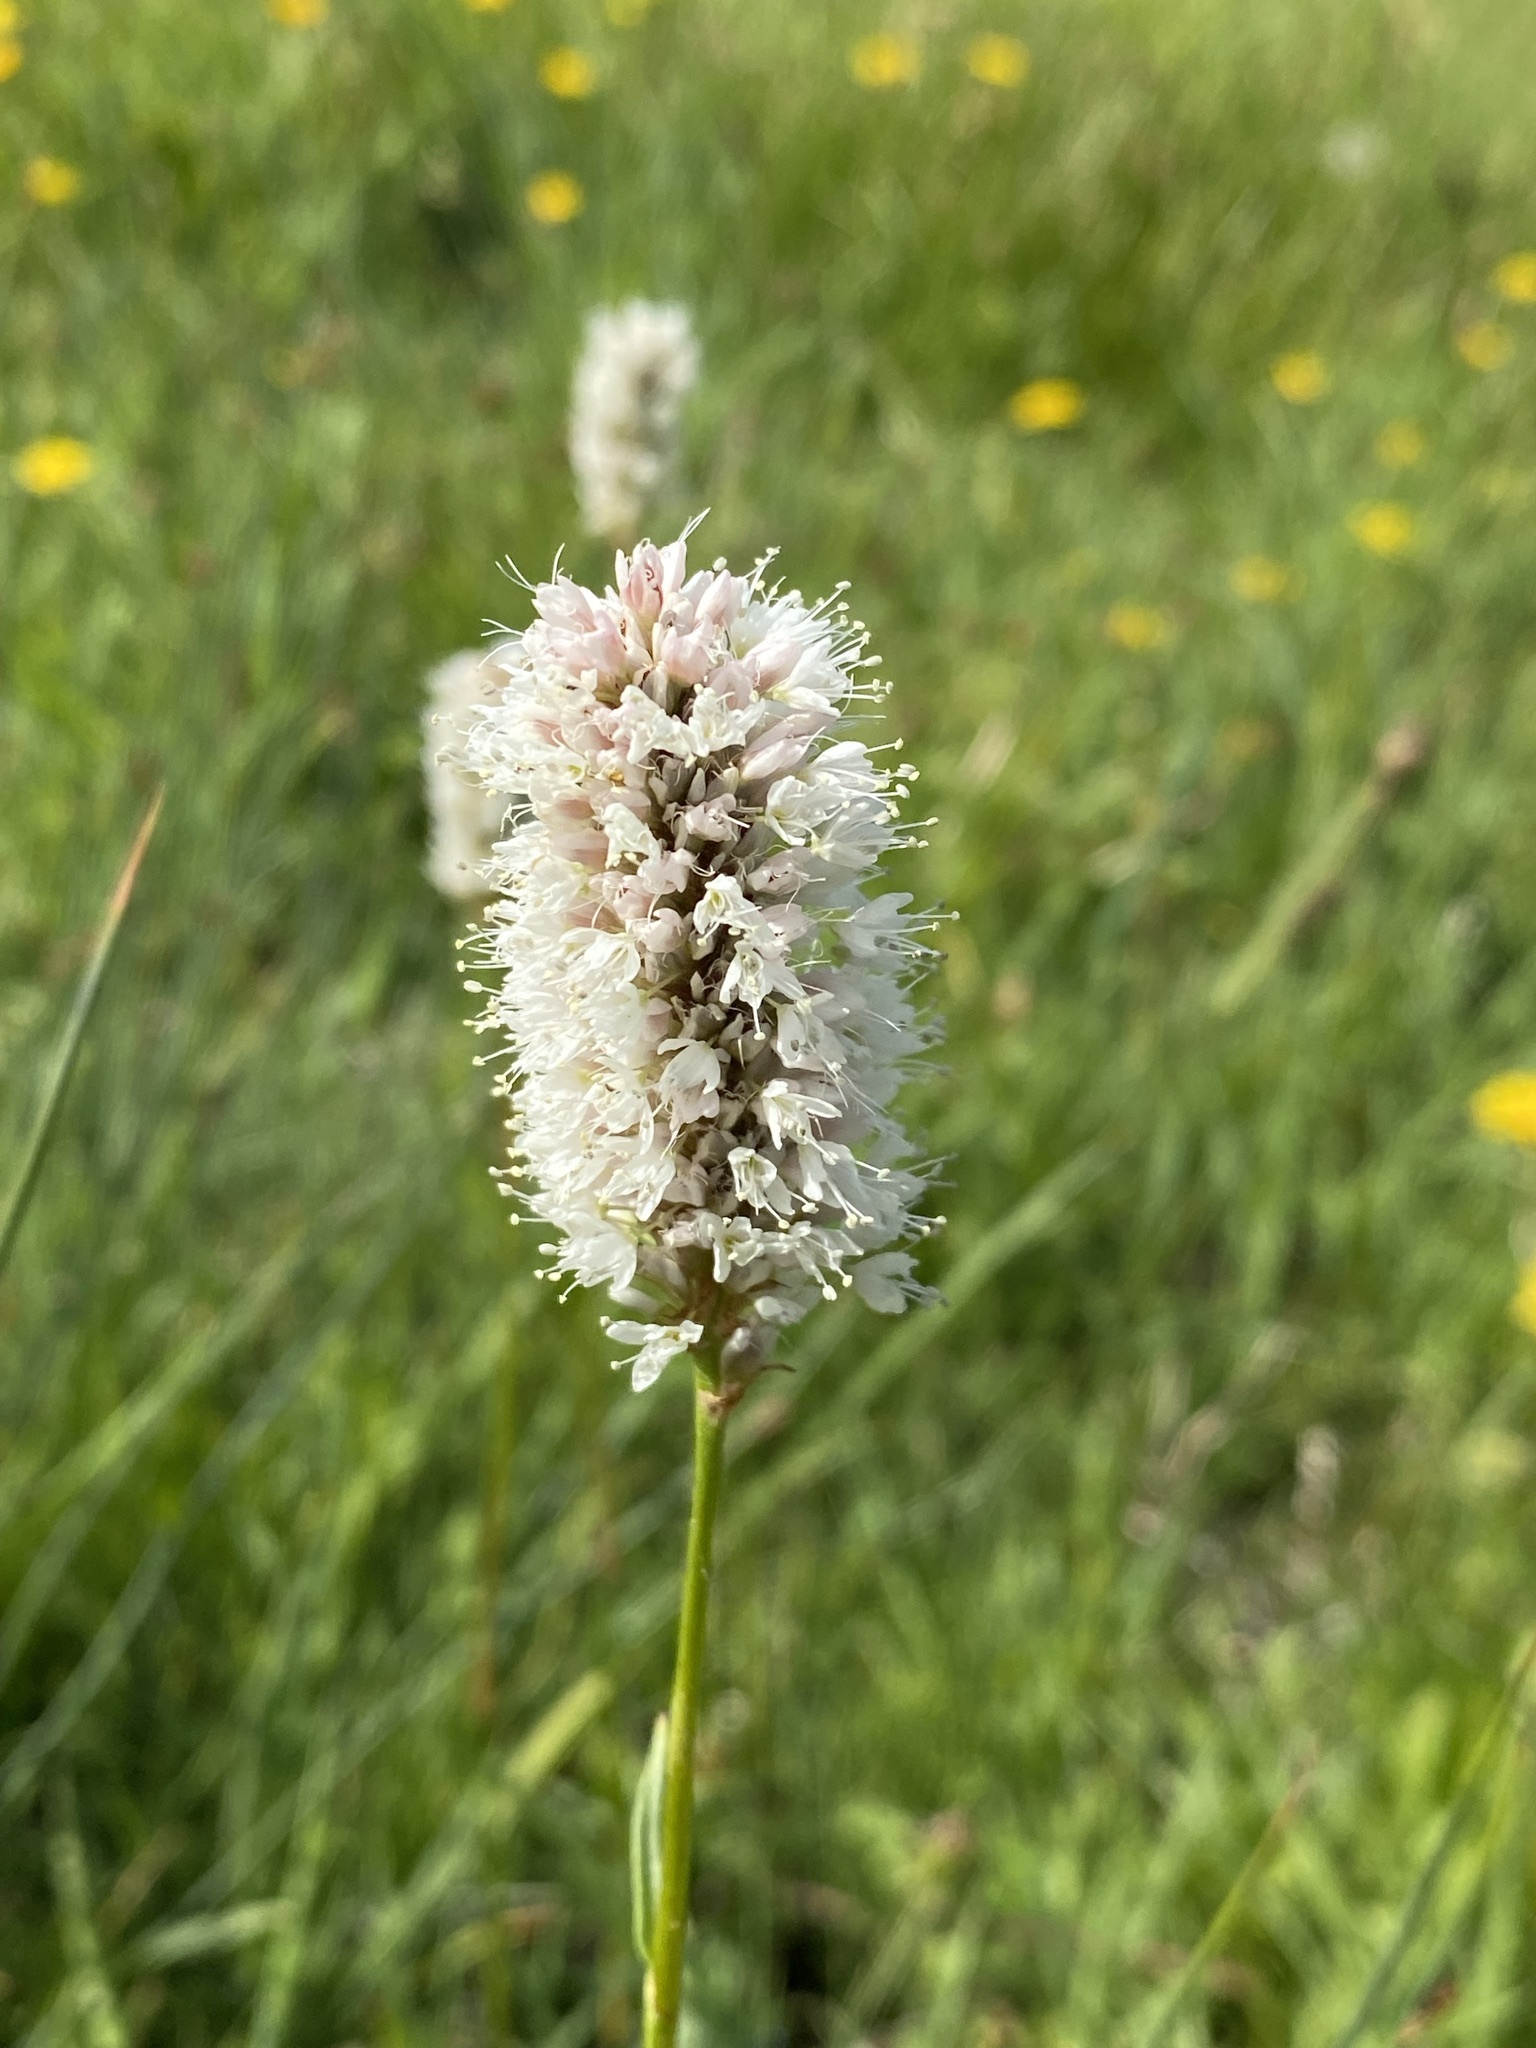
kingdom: Plantae
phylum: Tracheophyta
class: Magnoliopsida
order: Caryophyllales
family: Polygonaceae
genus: Bistorta
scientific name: Bistorta bistortoides
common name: American bistort
